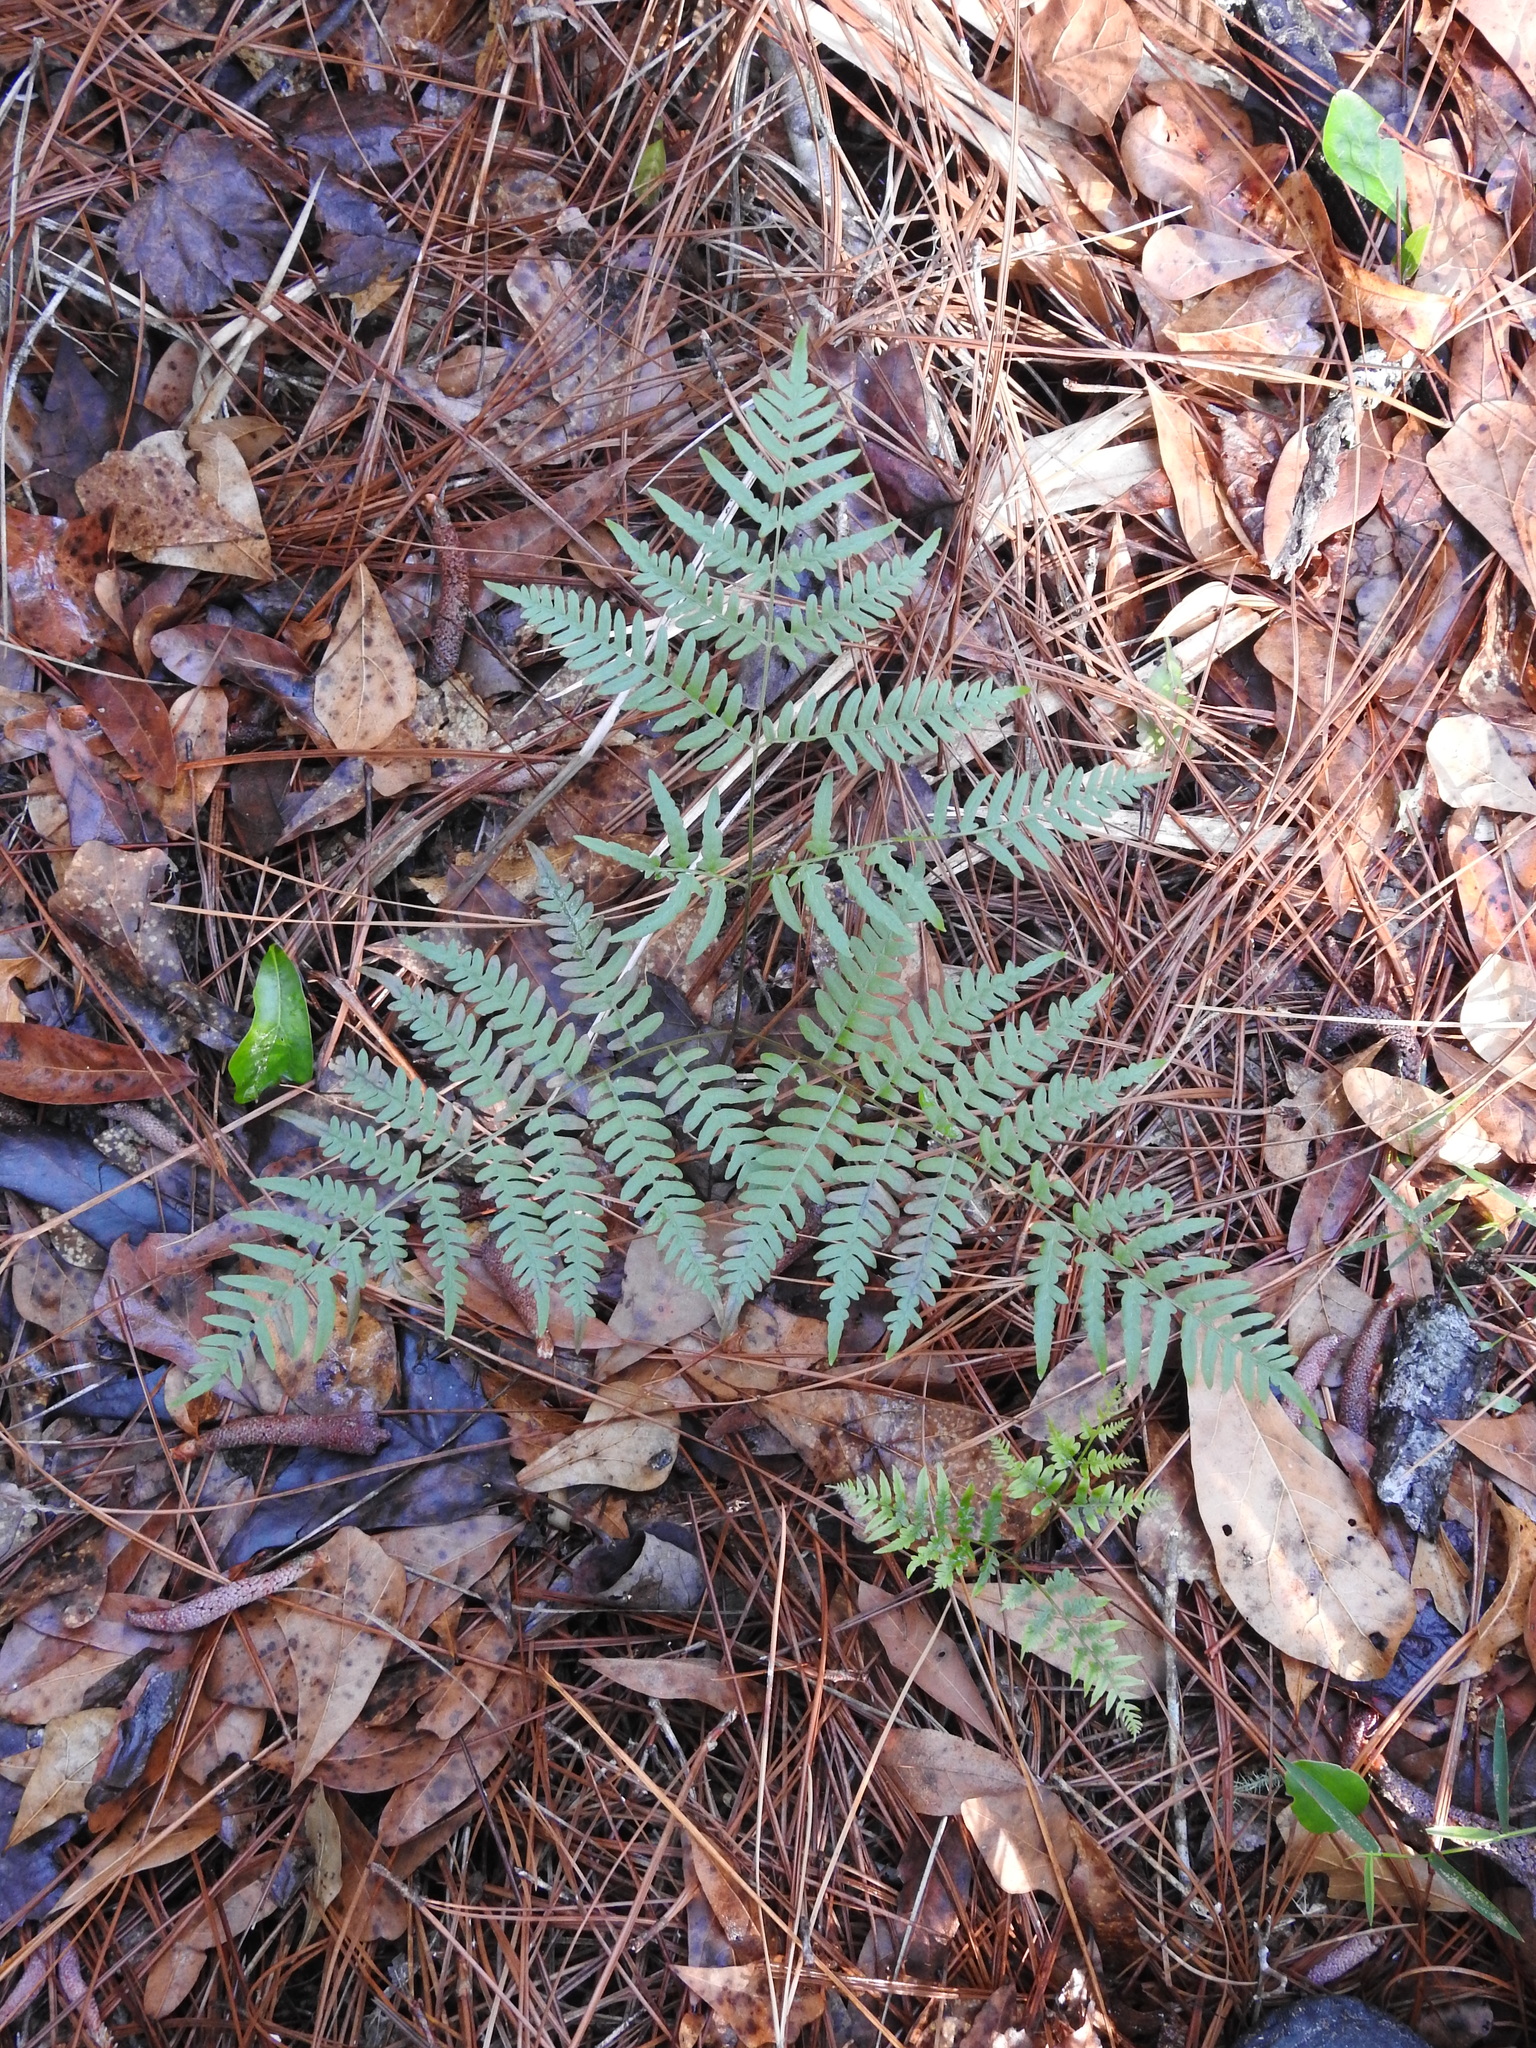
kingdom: Plantae
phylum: Tracheophyta
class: Polypodiopsida
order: Polypodiales
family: Dennstaedtiaceae
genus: Pteridium
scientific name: Pteridium aquilinum
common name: Bracken
